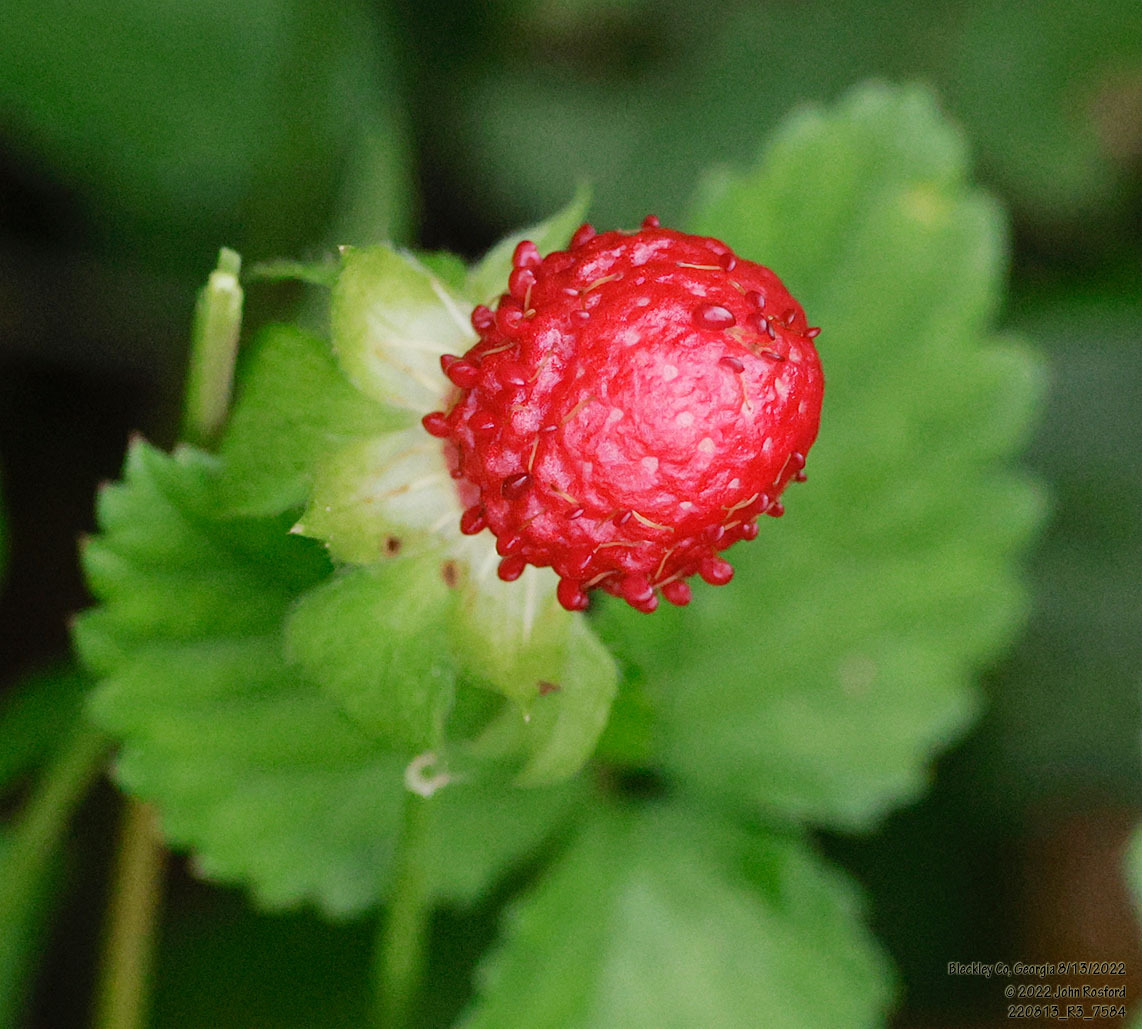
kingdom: Plantae
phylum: Tracheophyta
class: Magnoliopsida
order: Rosales
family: Rosaceae
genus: Potentilla
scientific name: Potentilla indica
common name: Yellow-flowered strawberry
